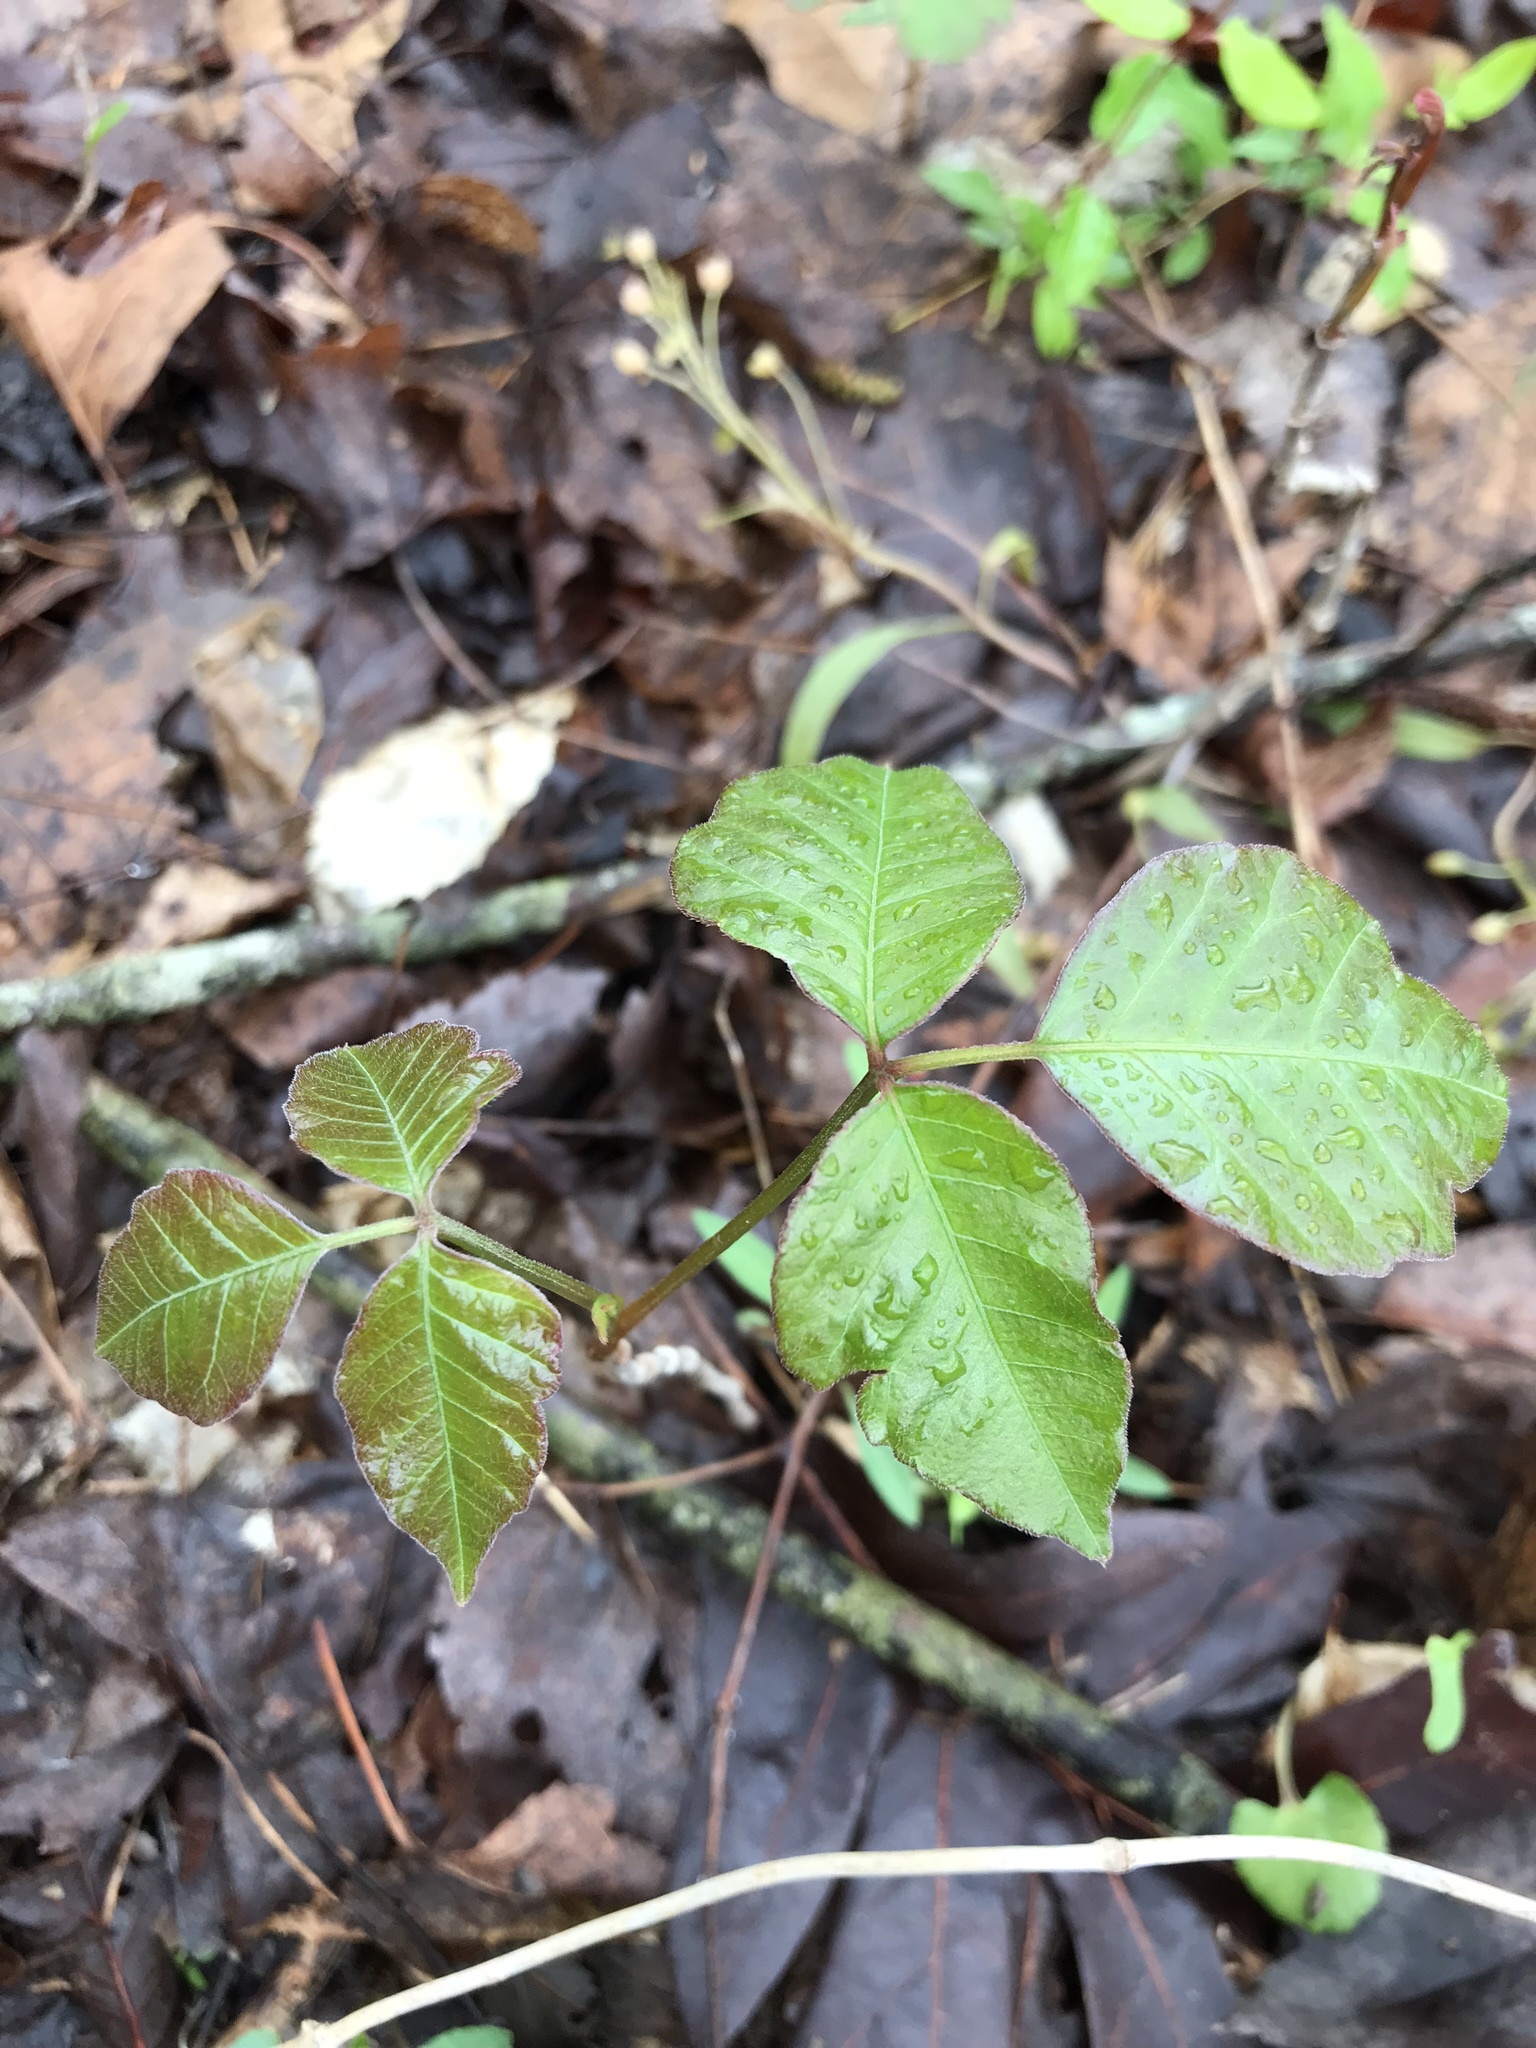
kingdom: Plantae
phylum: Tracheophyta
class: Magnoliopsida
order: Sapindales
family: Anacardiaceae
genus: Toxicodendron
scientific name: Toxicodendron radicans
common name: Poison ivy
